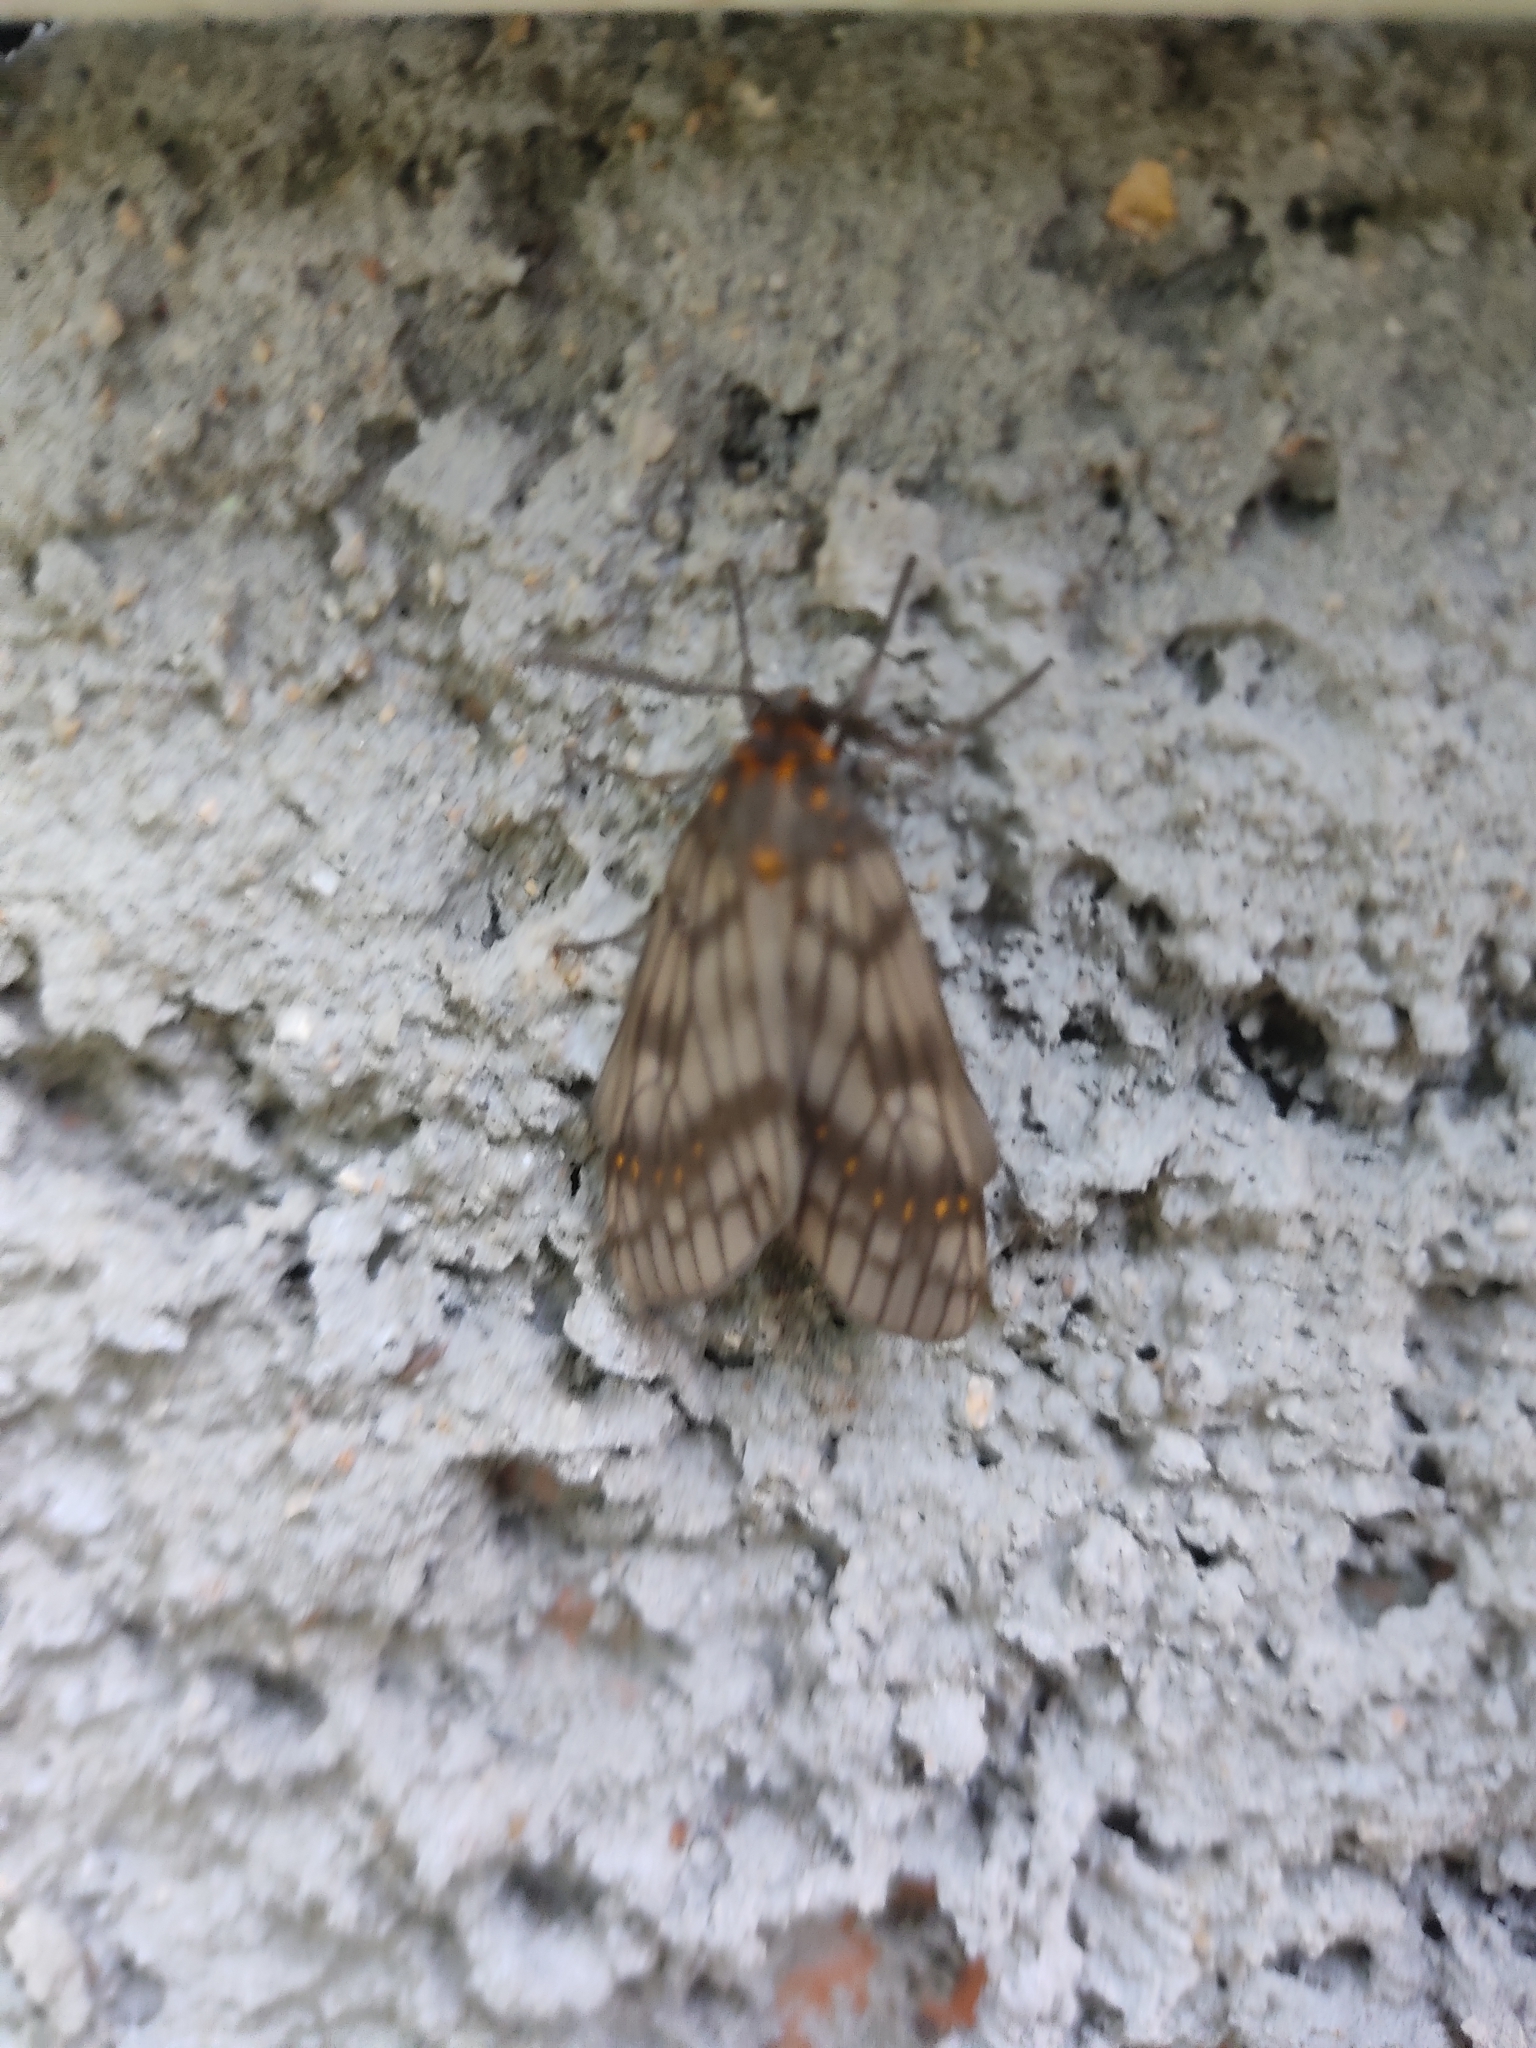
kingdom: Animalia
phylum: Arthropoda
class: Insecta
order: Lepidoptera
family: Erebidae
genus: Machadoia
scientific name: Machadoia xanthosticta
